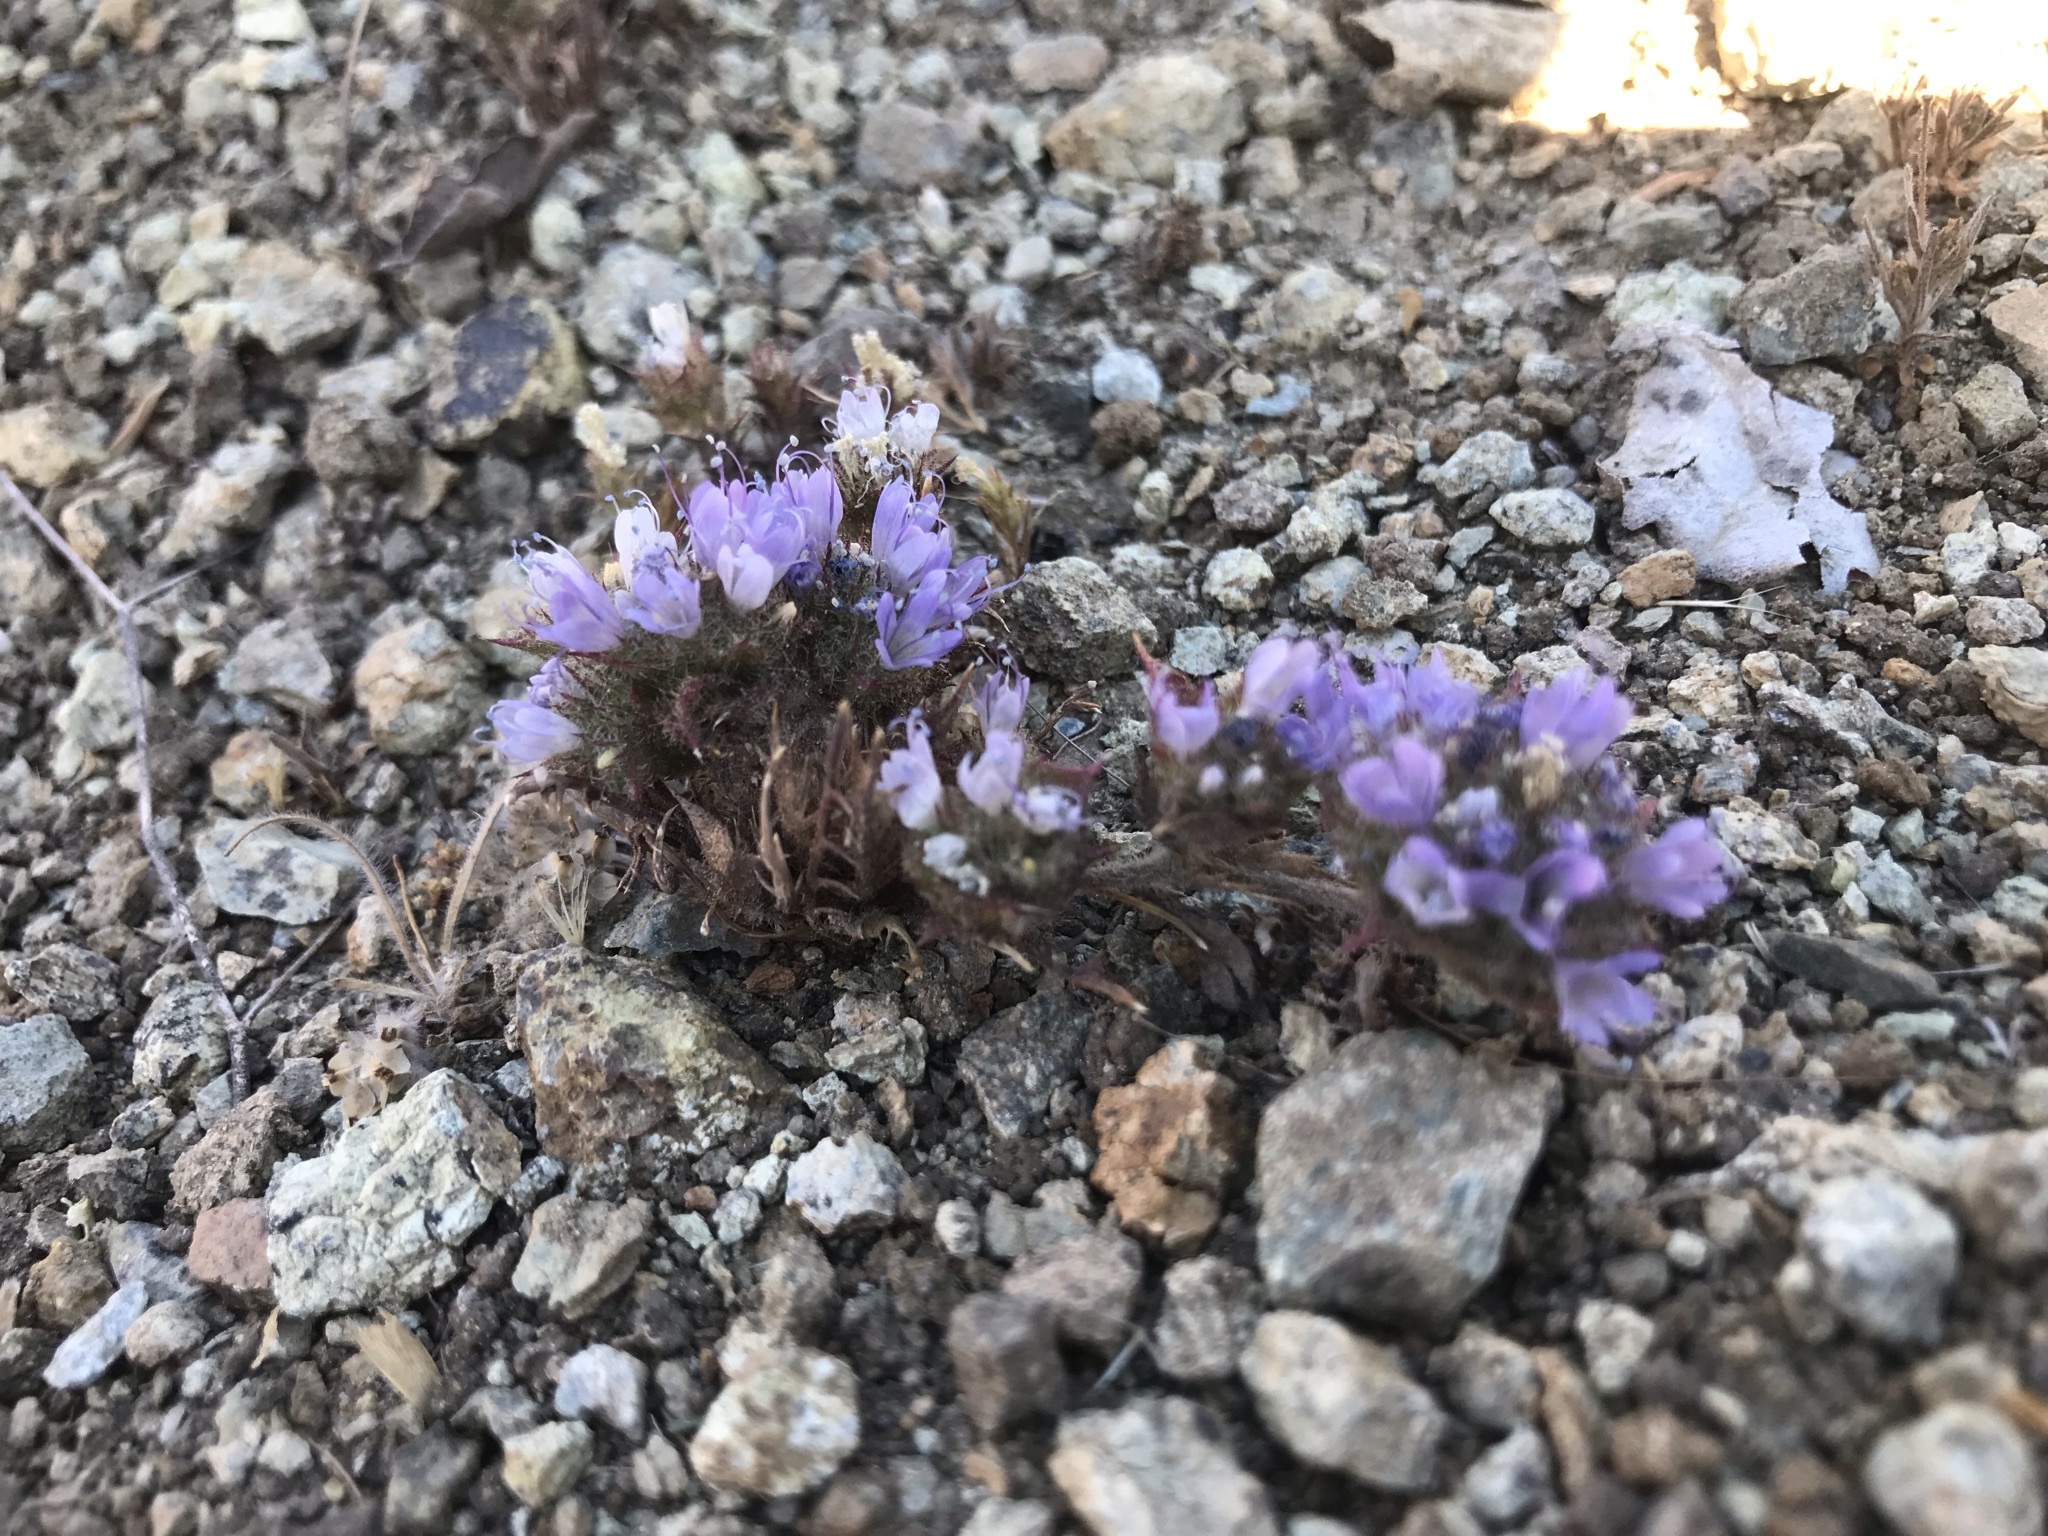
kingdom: Plantae
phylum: Tracheophyta
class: Magnoliopsida
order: Ericales
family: Polemoniaceae
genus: Navarretia
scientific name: Navarretia heterodoxa
